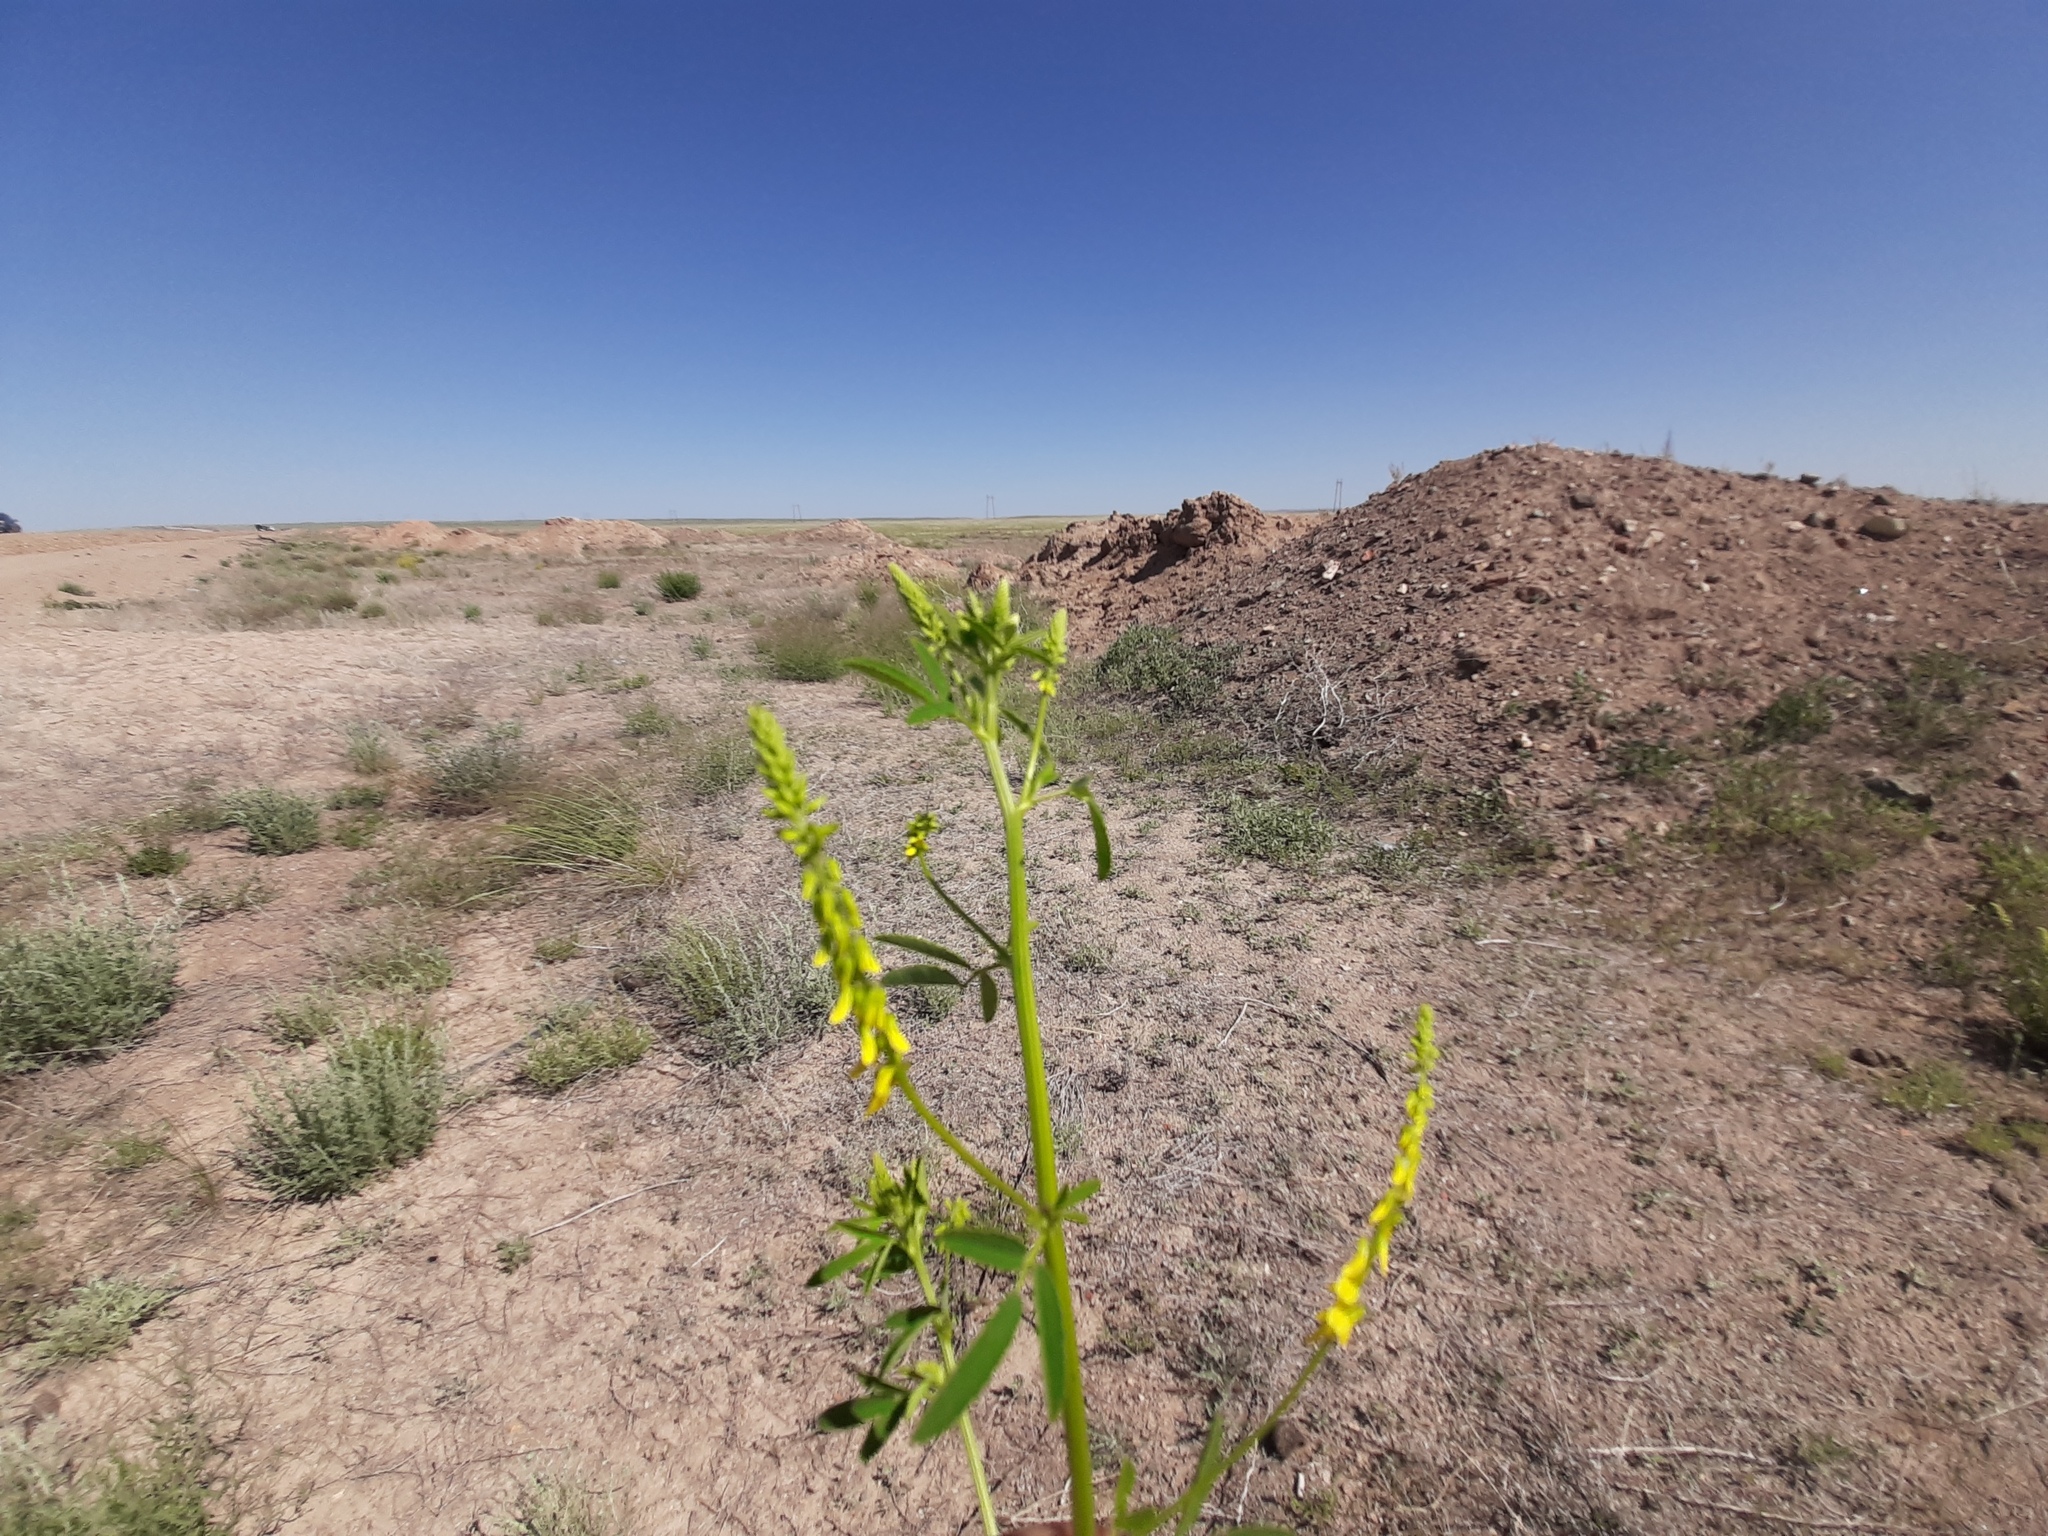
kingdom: Plantae
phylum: Tracheophyta
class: Magnoliopsida
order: Fabales
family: Fabaceae
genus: Melilotus
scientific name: Melilotus officinalis
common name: Sweetclover
